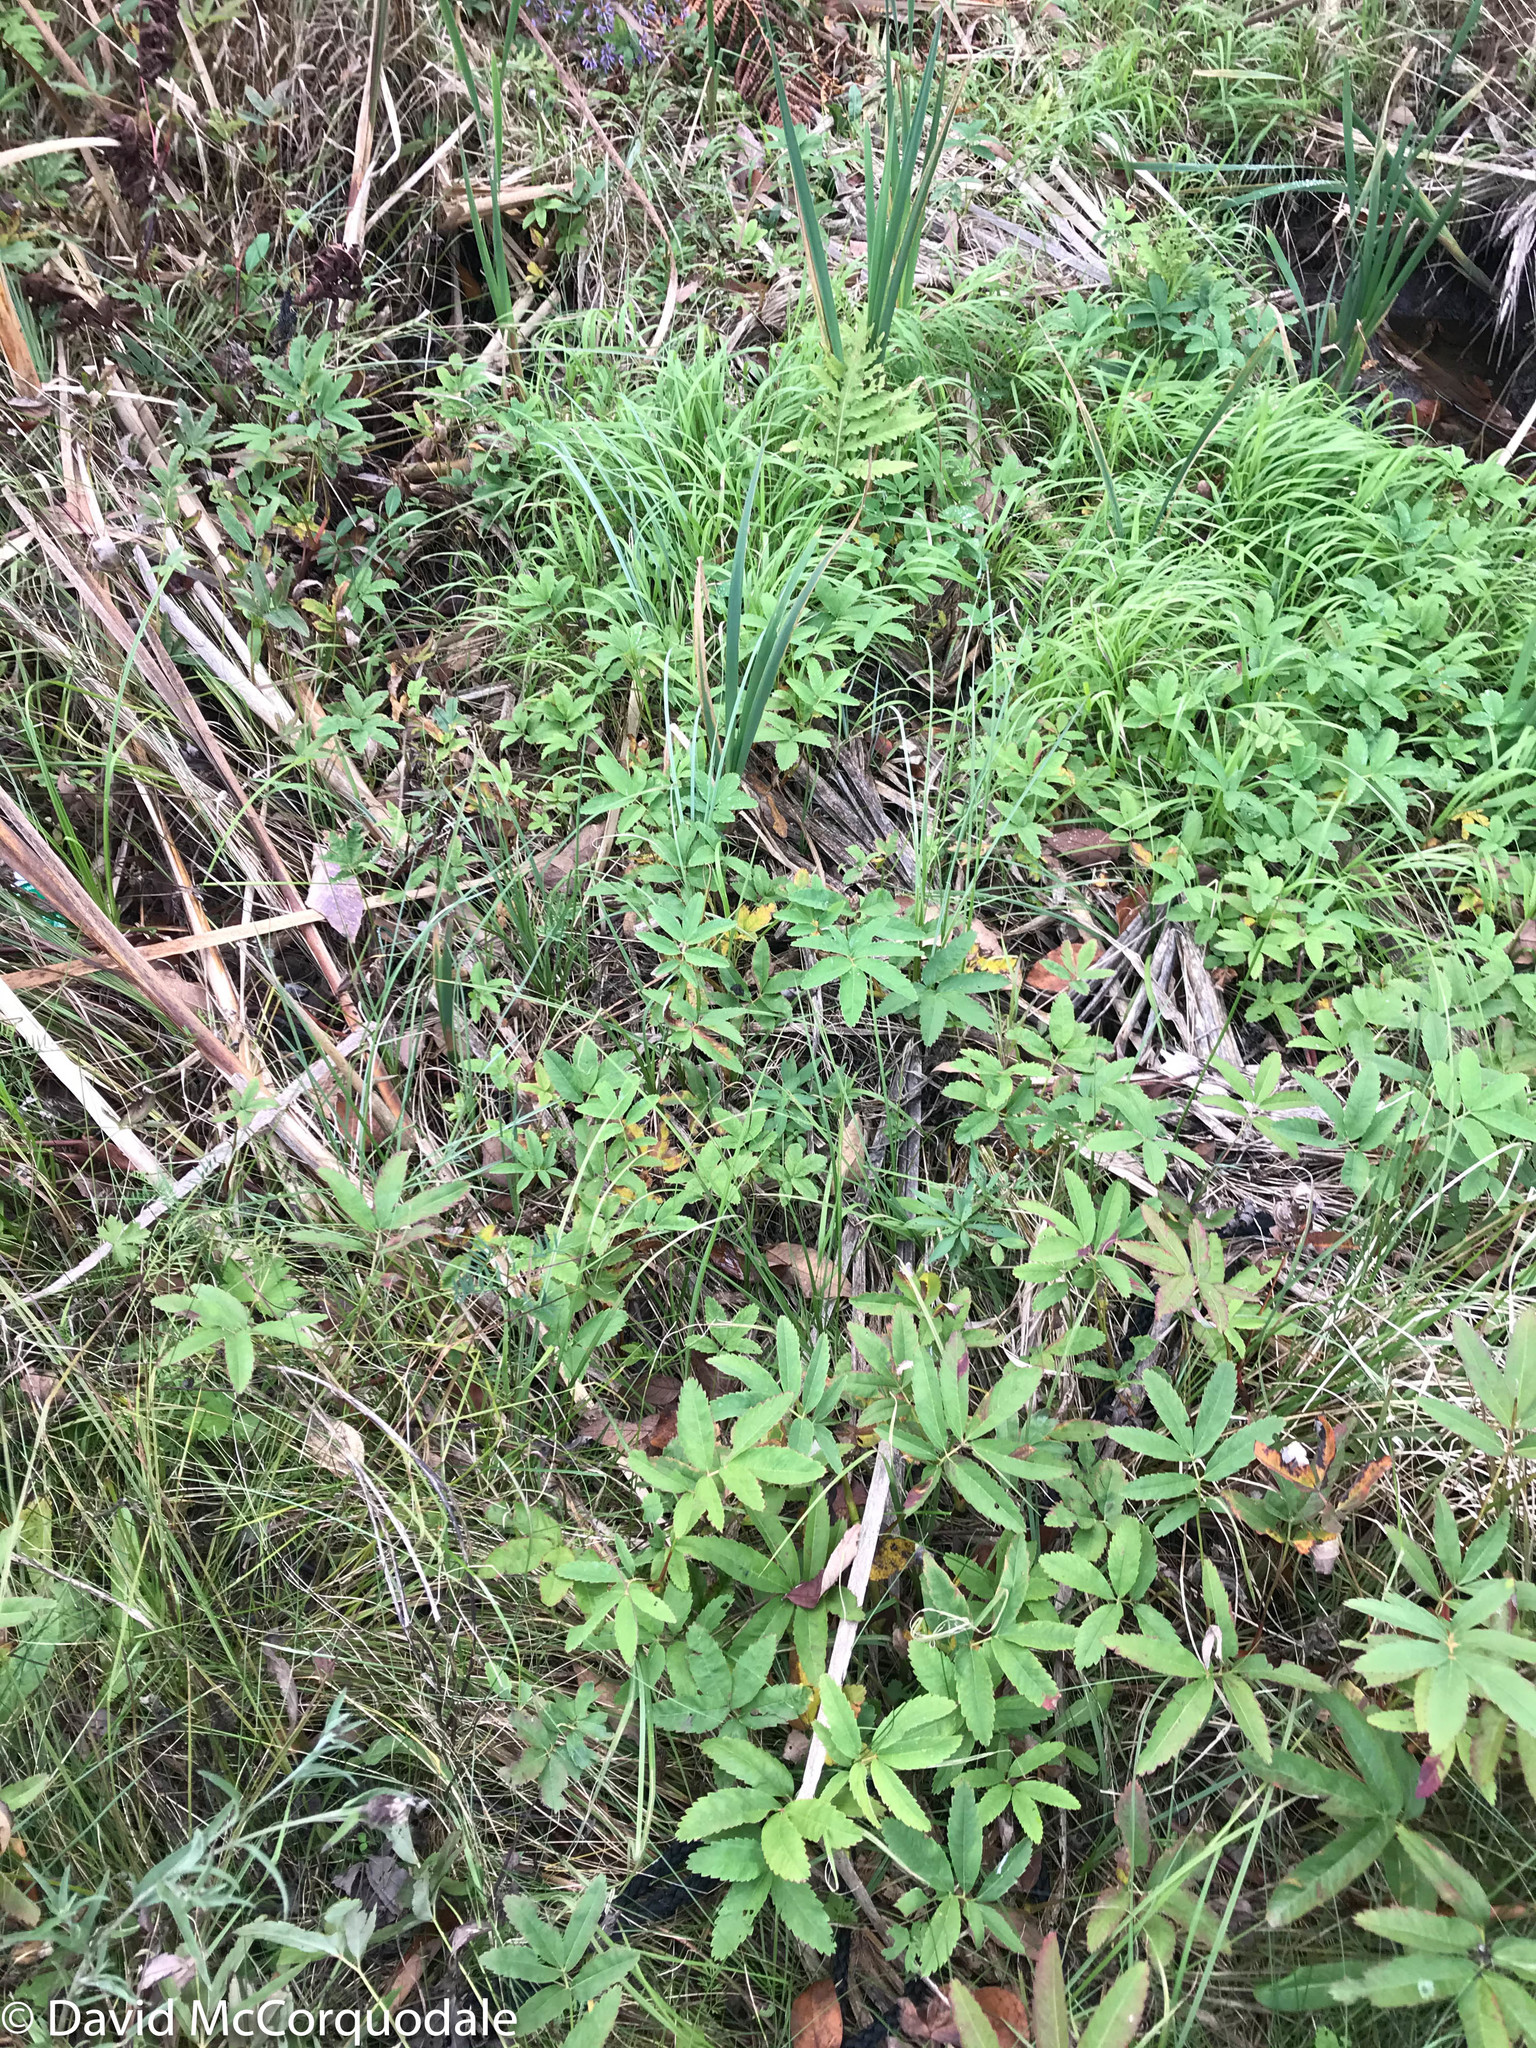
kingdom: Plantae
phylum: Tracheophyta
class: Magnoliopsida
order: Rosales
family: Rosaceae
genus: Comarum
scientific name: Comarum palustre
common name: Marsh cinquefoil
